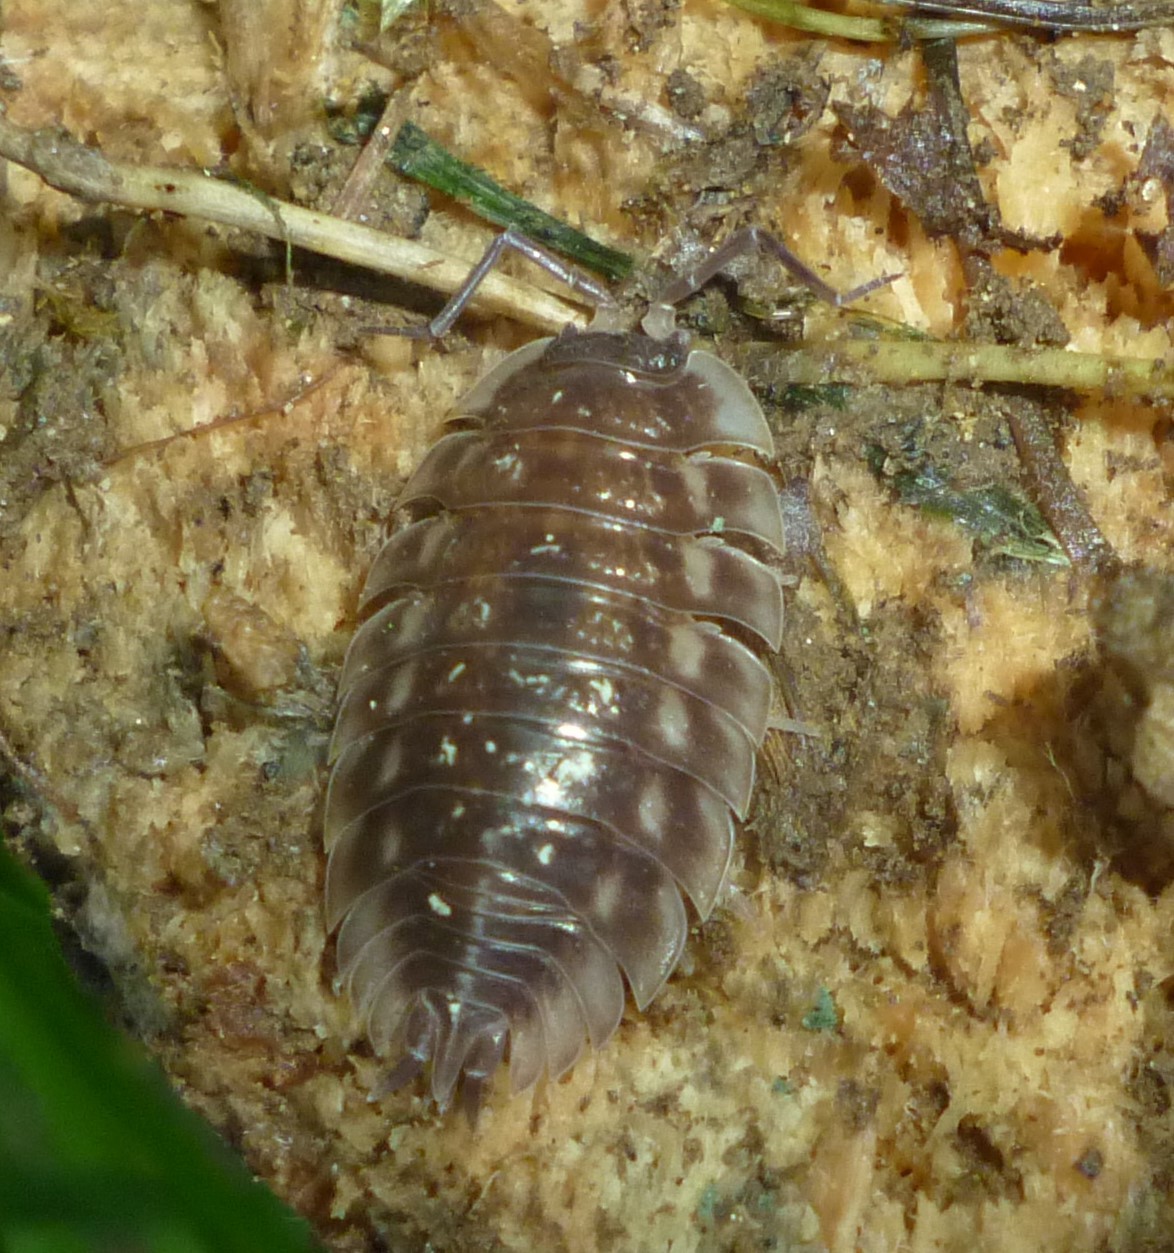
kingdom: Animalia
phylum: Arthropoda
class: Malacostraca
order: Isopoda
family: Oniscidae
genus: Oniscus
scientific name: Oniscus asellus
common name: Common shiny woodlouse
